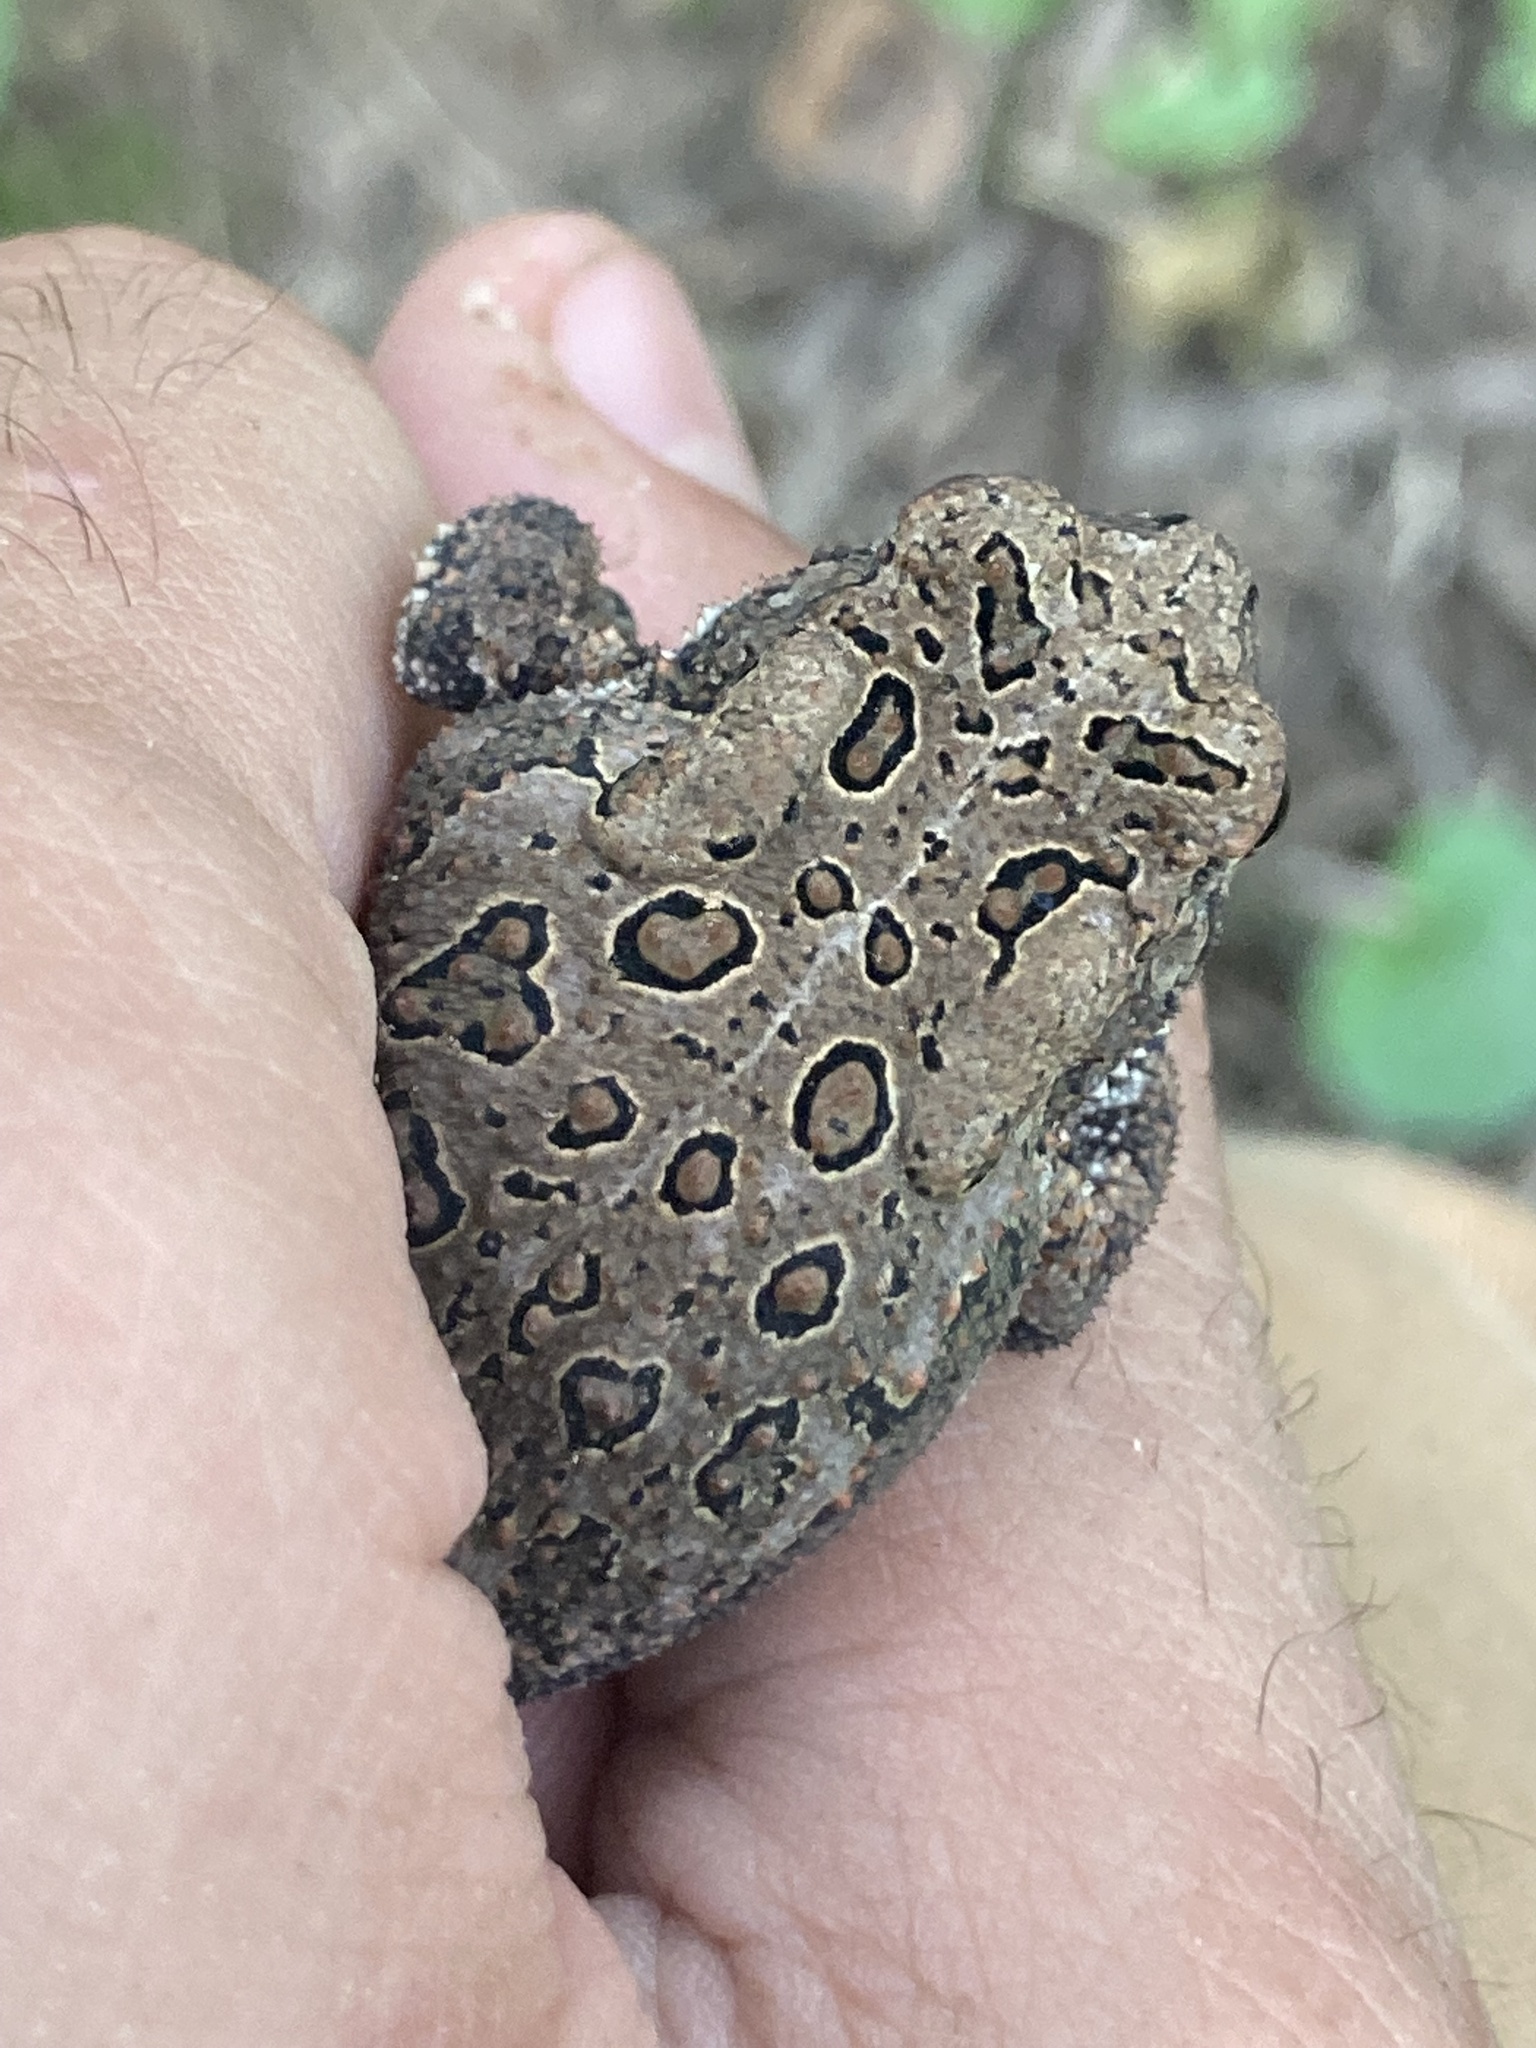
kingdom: Animalia
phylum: Chordata
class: Amphibia
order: Anura
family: Bufonidae
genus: Anaxyrus
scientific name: Anaxyrus americanus
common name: American toad
